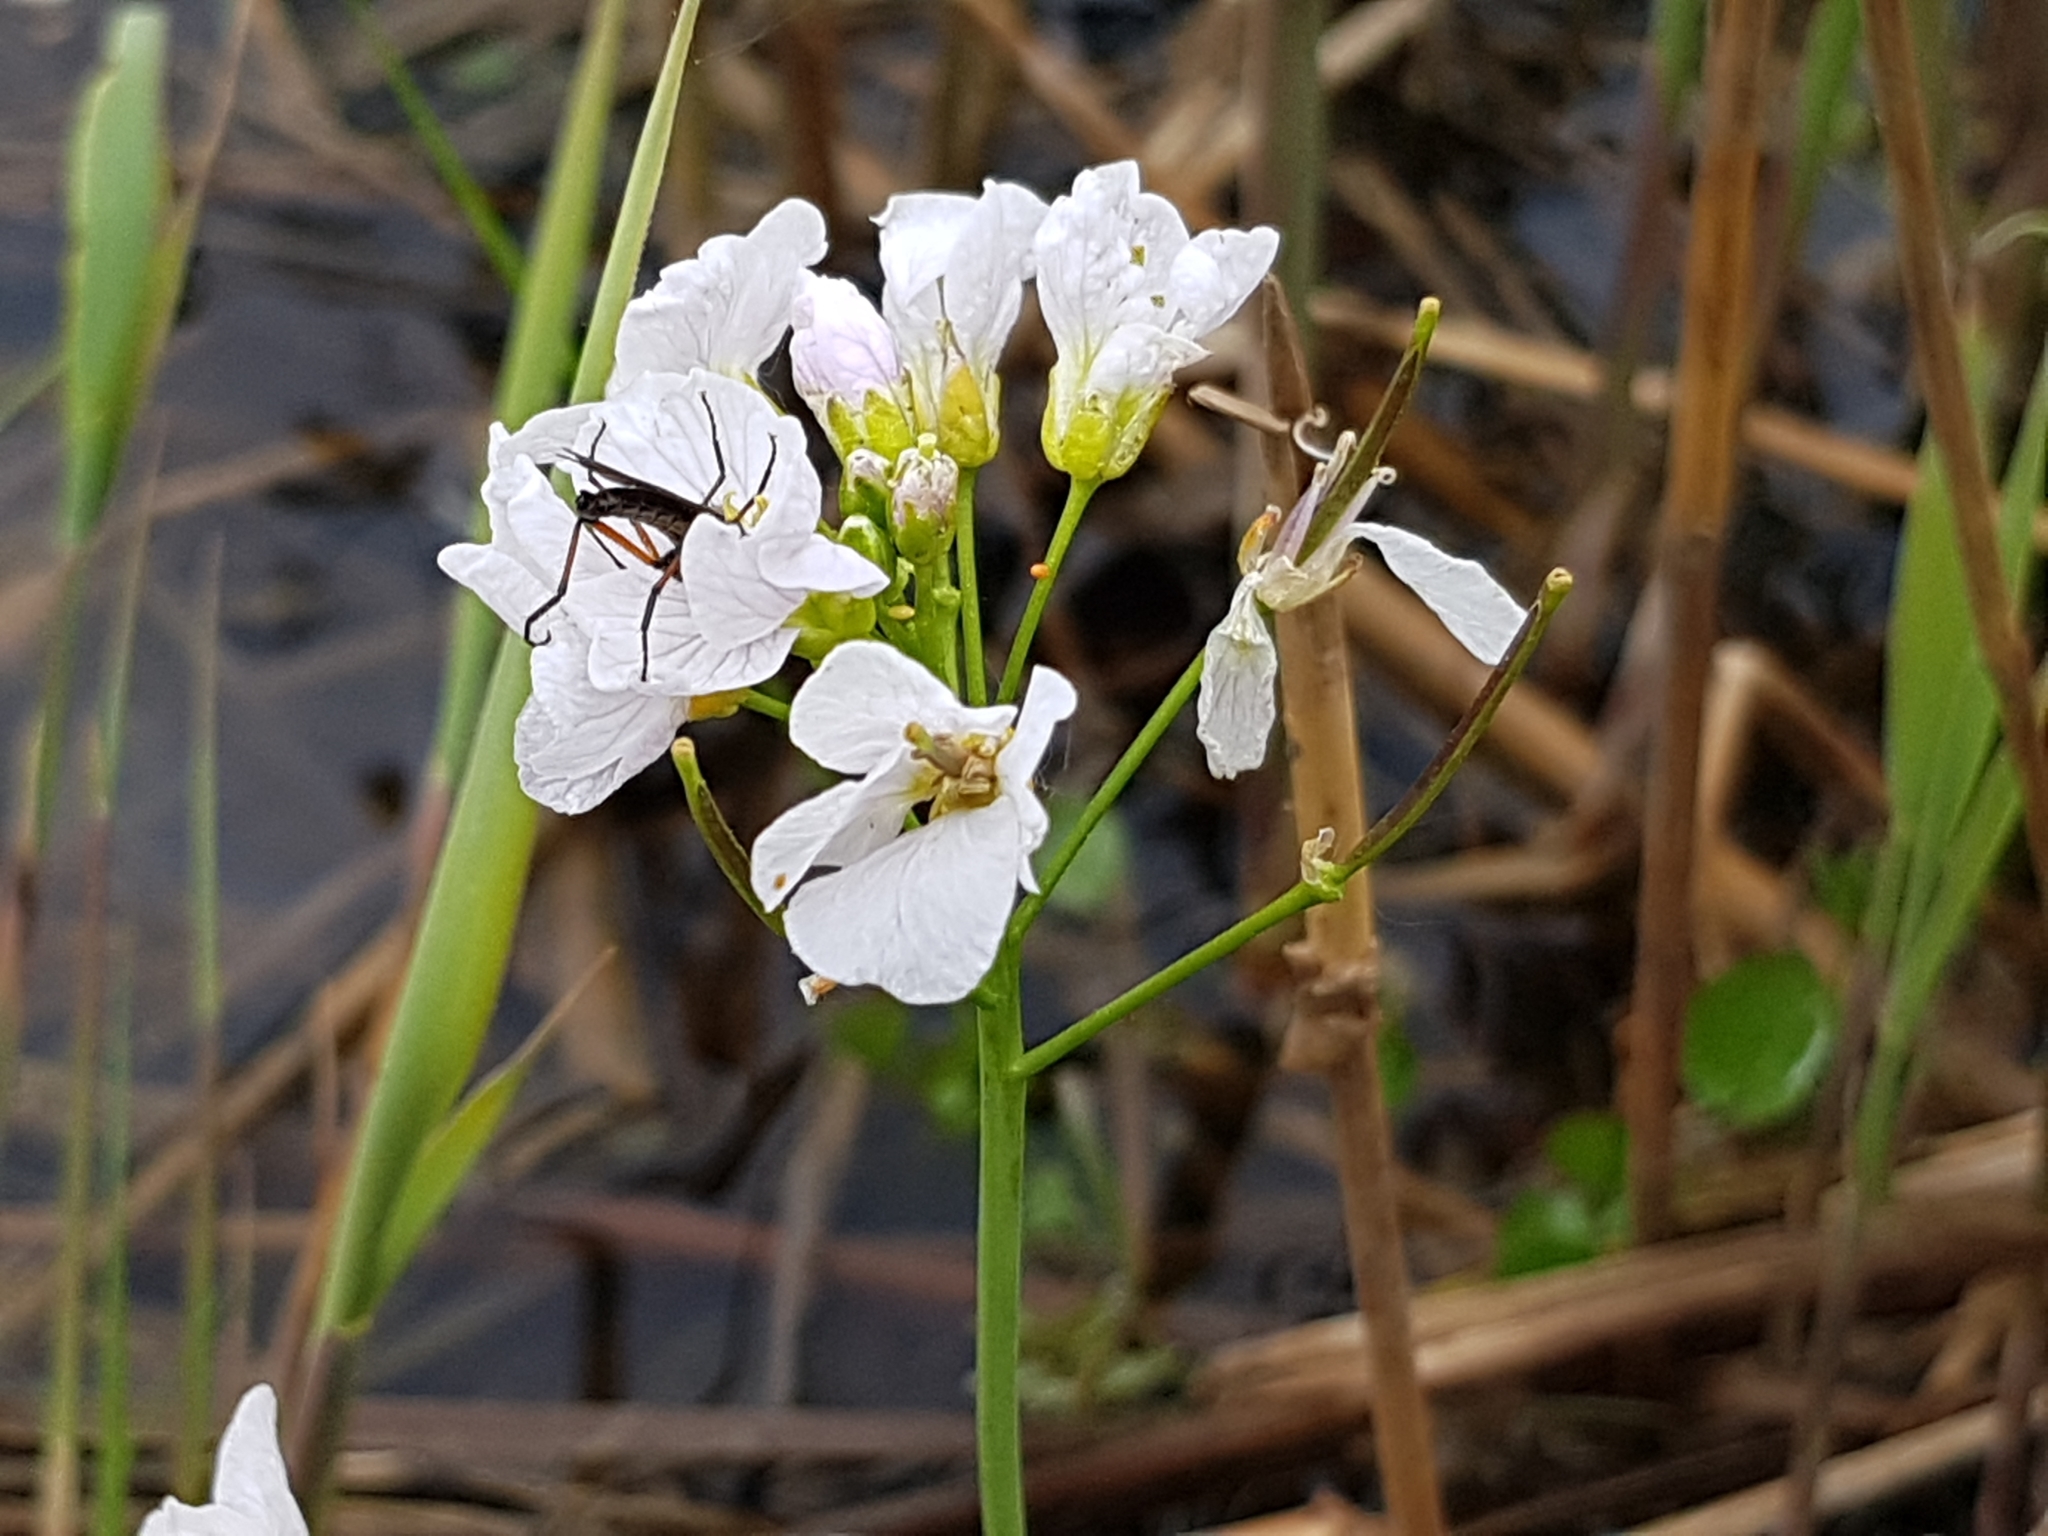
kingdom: Plantae
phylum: Tracheophyta
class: Magnoliopsida
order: Brassicales
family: Brassicaceae
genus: Cardamine
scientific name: Cardamine dentata
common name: Toothed bittercress
